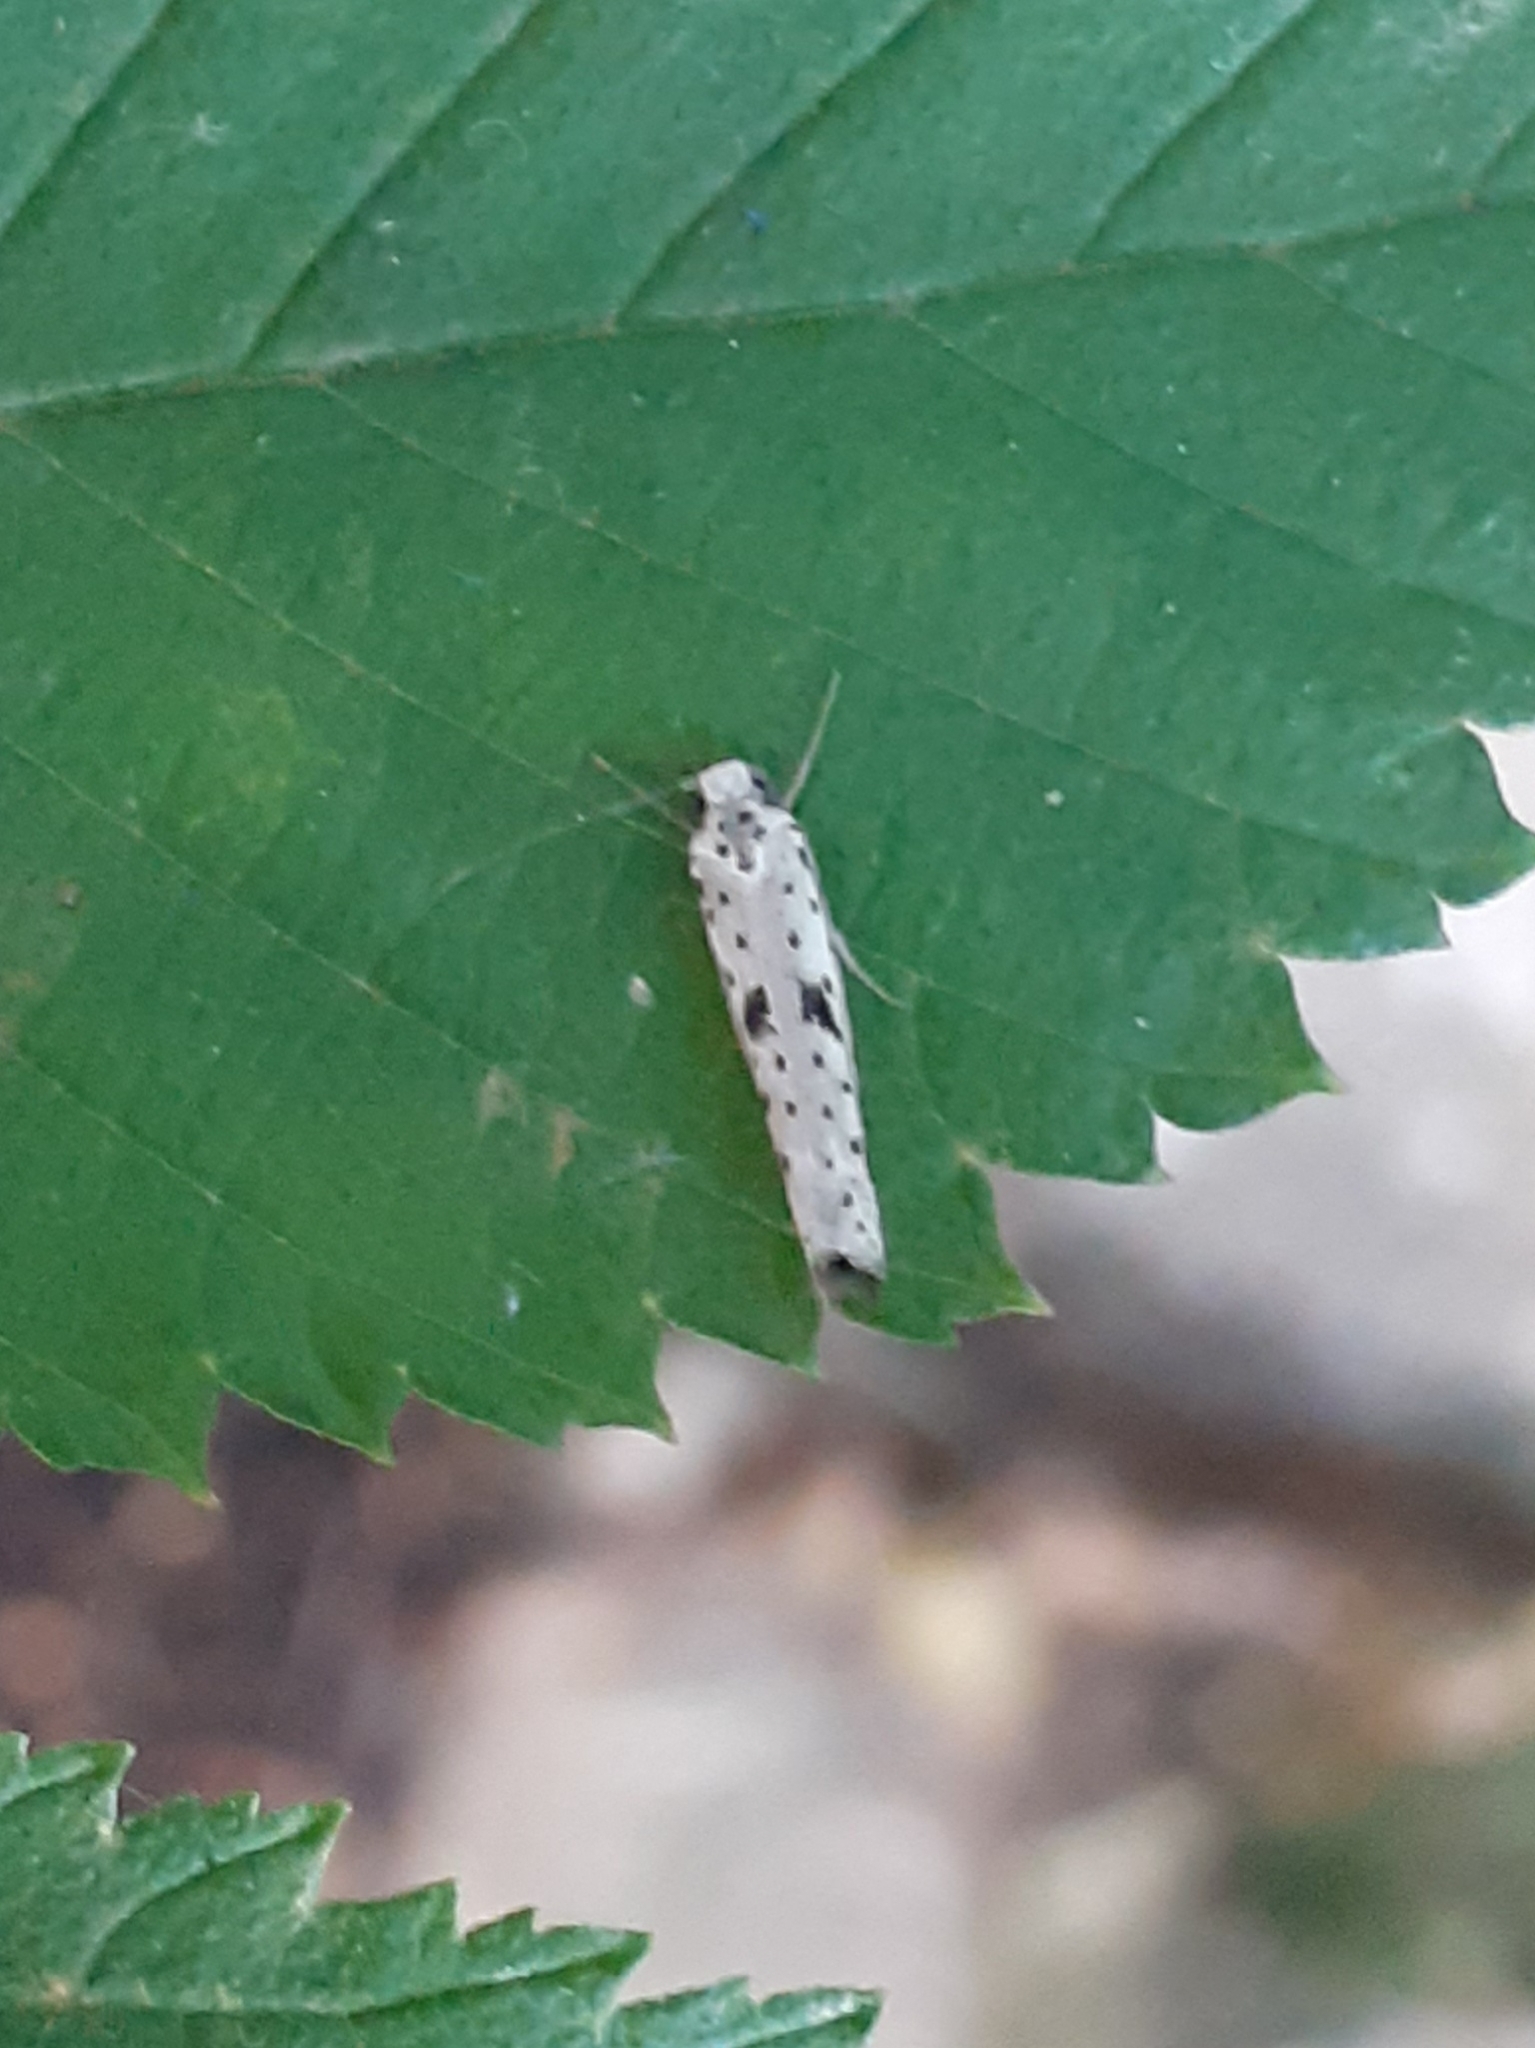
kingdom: Animalia
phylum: Arthropoda
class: Insecta
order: Lepidoptera
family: Yponomeutidae
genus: Yponomeuta
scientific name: Yponomeuta plumbella
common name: Black-tipped ermine
